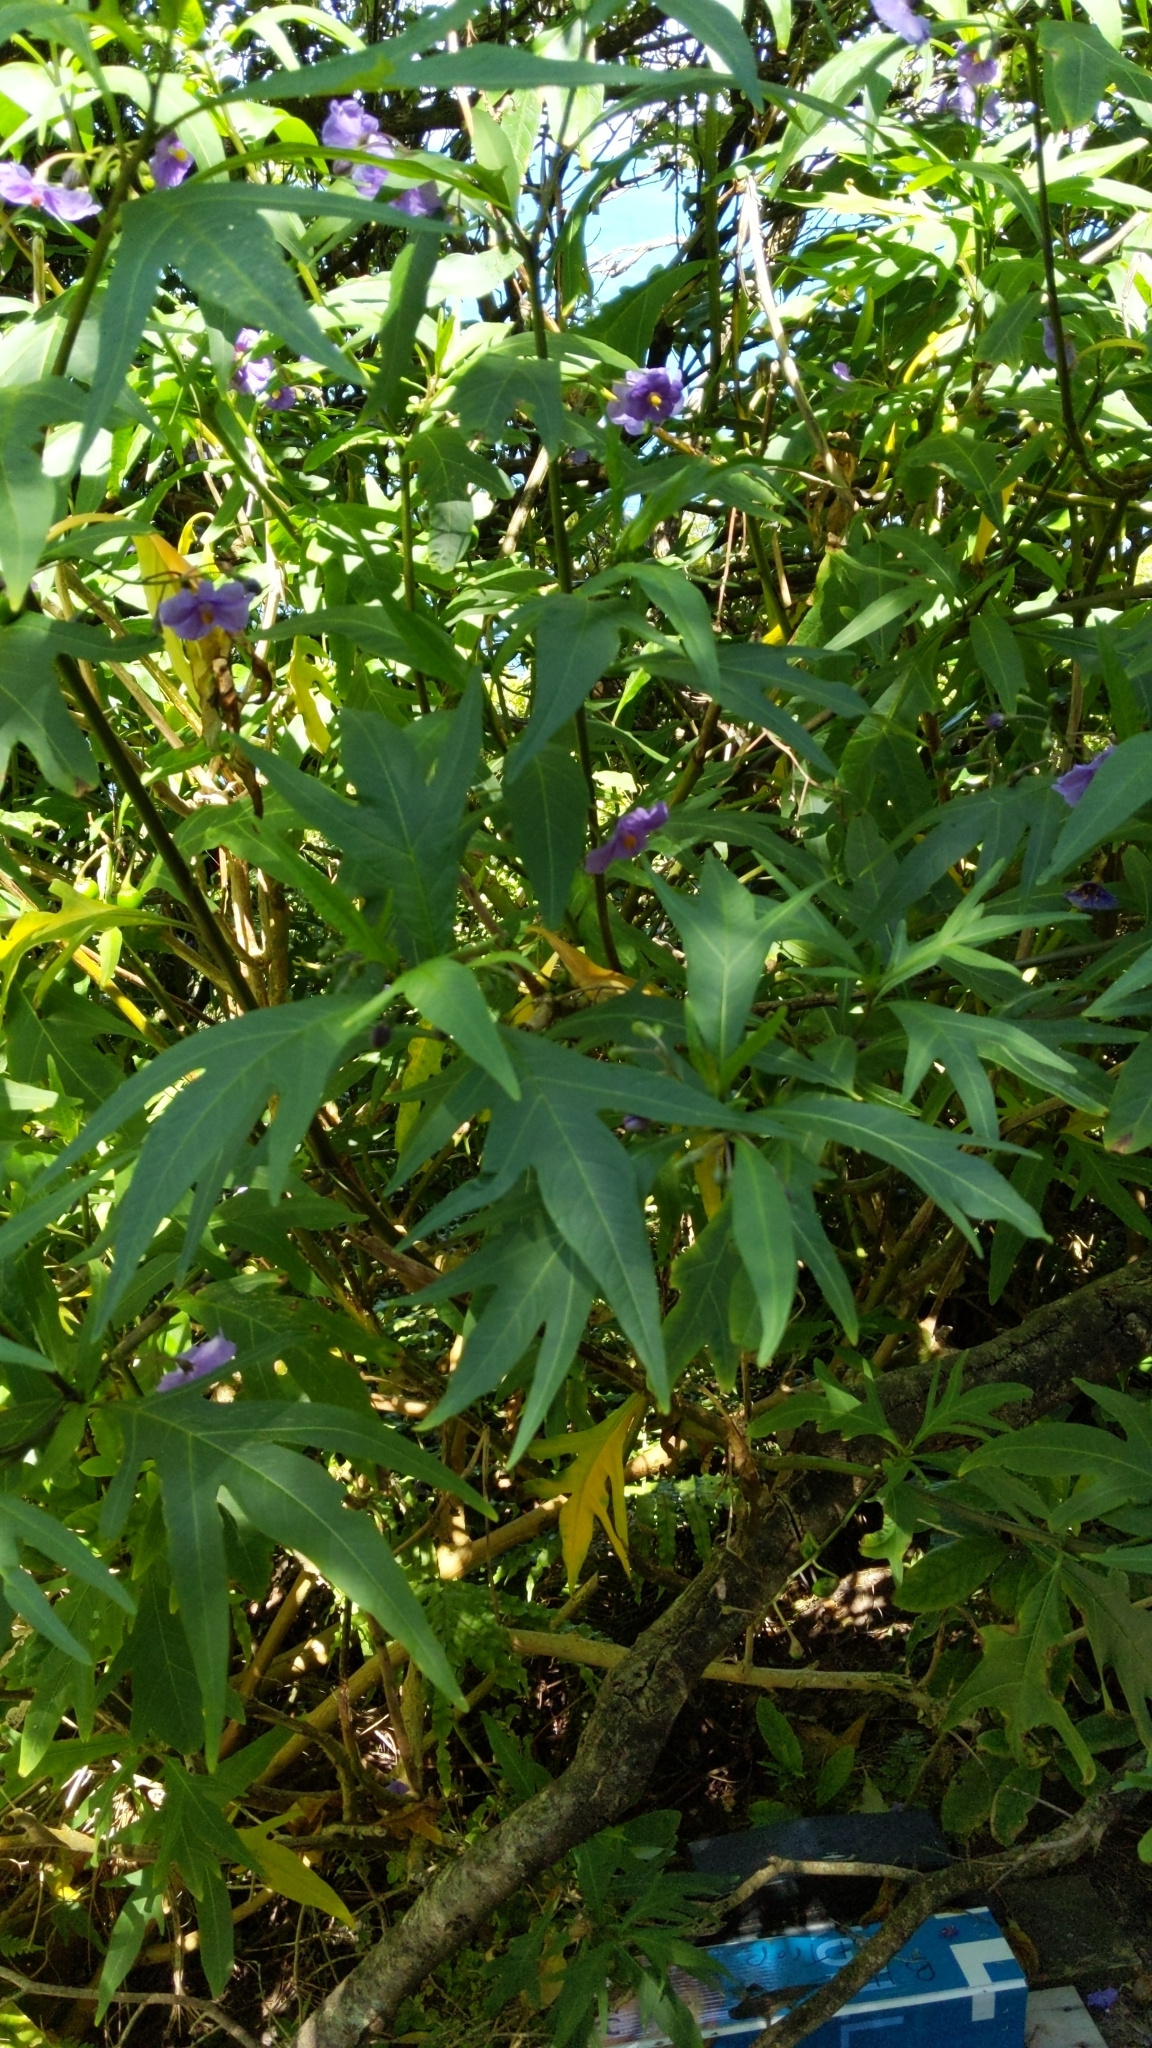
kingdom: Plantae
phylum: Tracheophyta
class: Magnoliopsida
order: Solanales
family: Solanaceae
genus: Solanum
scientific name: Solanum laciniatum
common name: Kangaroo-apple
